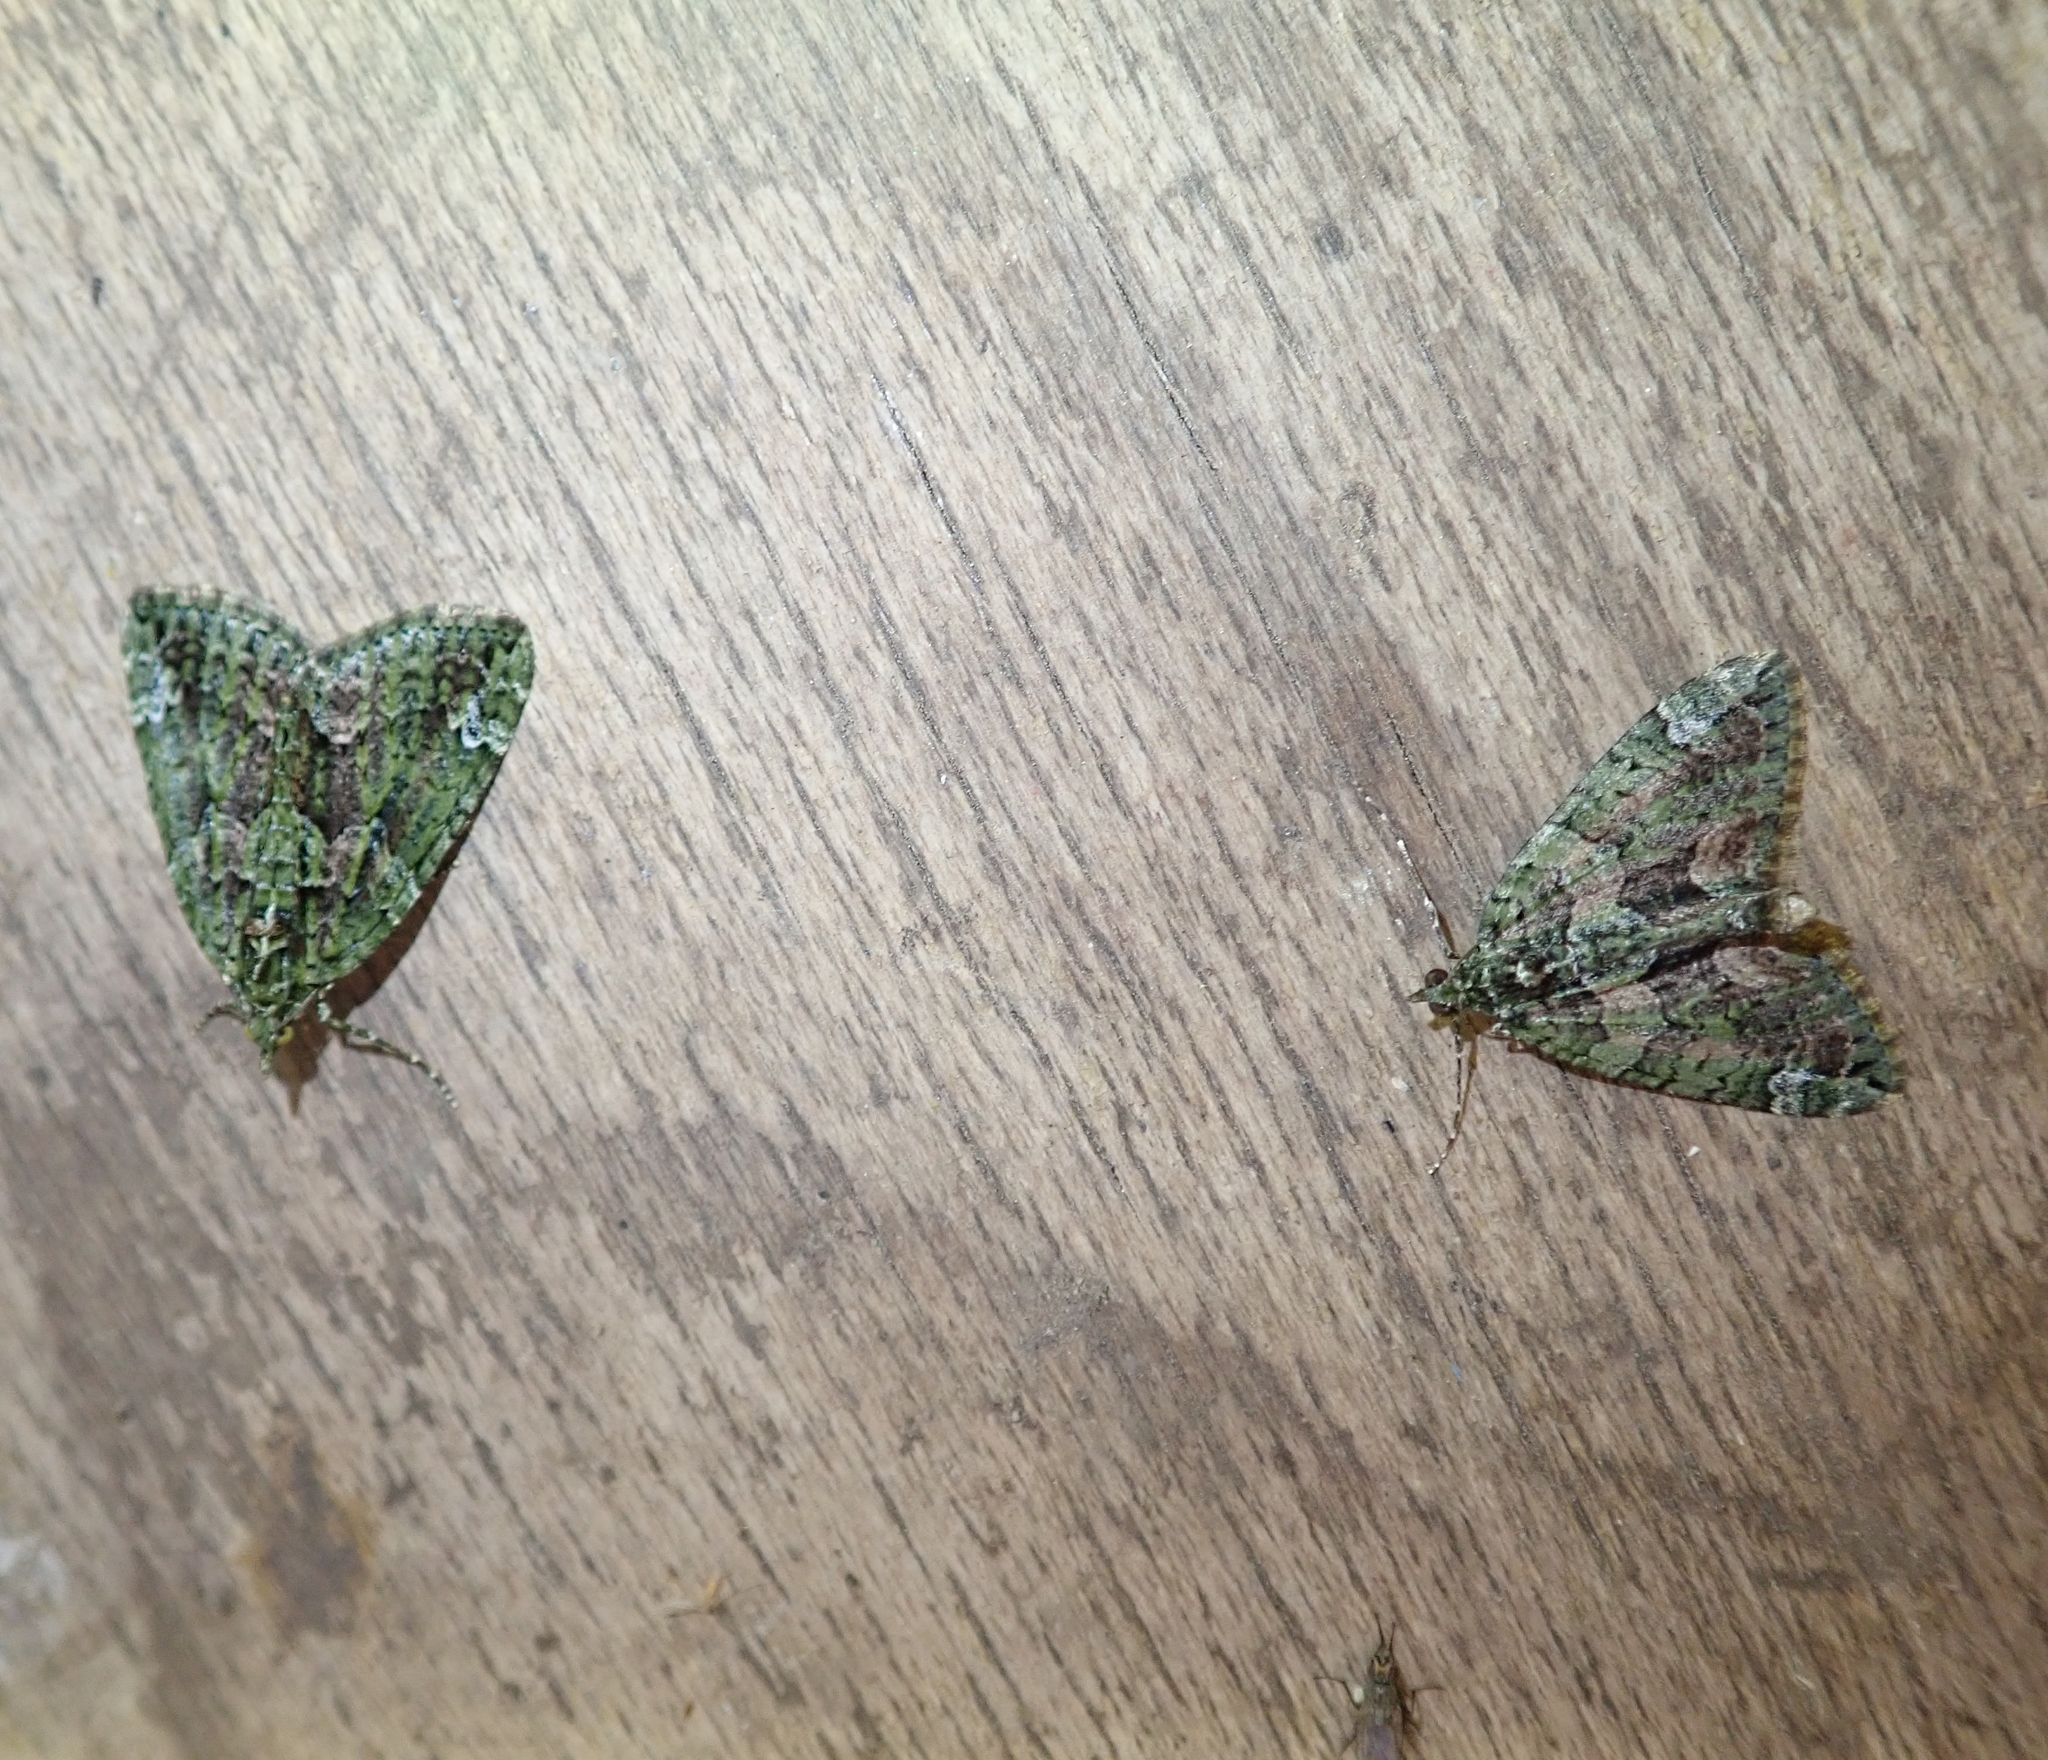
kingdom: Animalia
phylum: Arthropoda
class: Insecta
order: Lepidoptera
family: Geometridae
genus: Chloroclysta
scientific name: Chloroclysta siterata
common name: Red-green carpet
